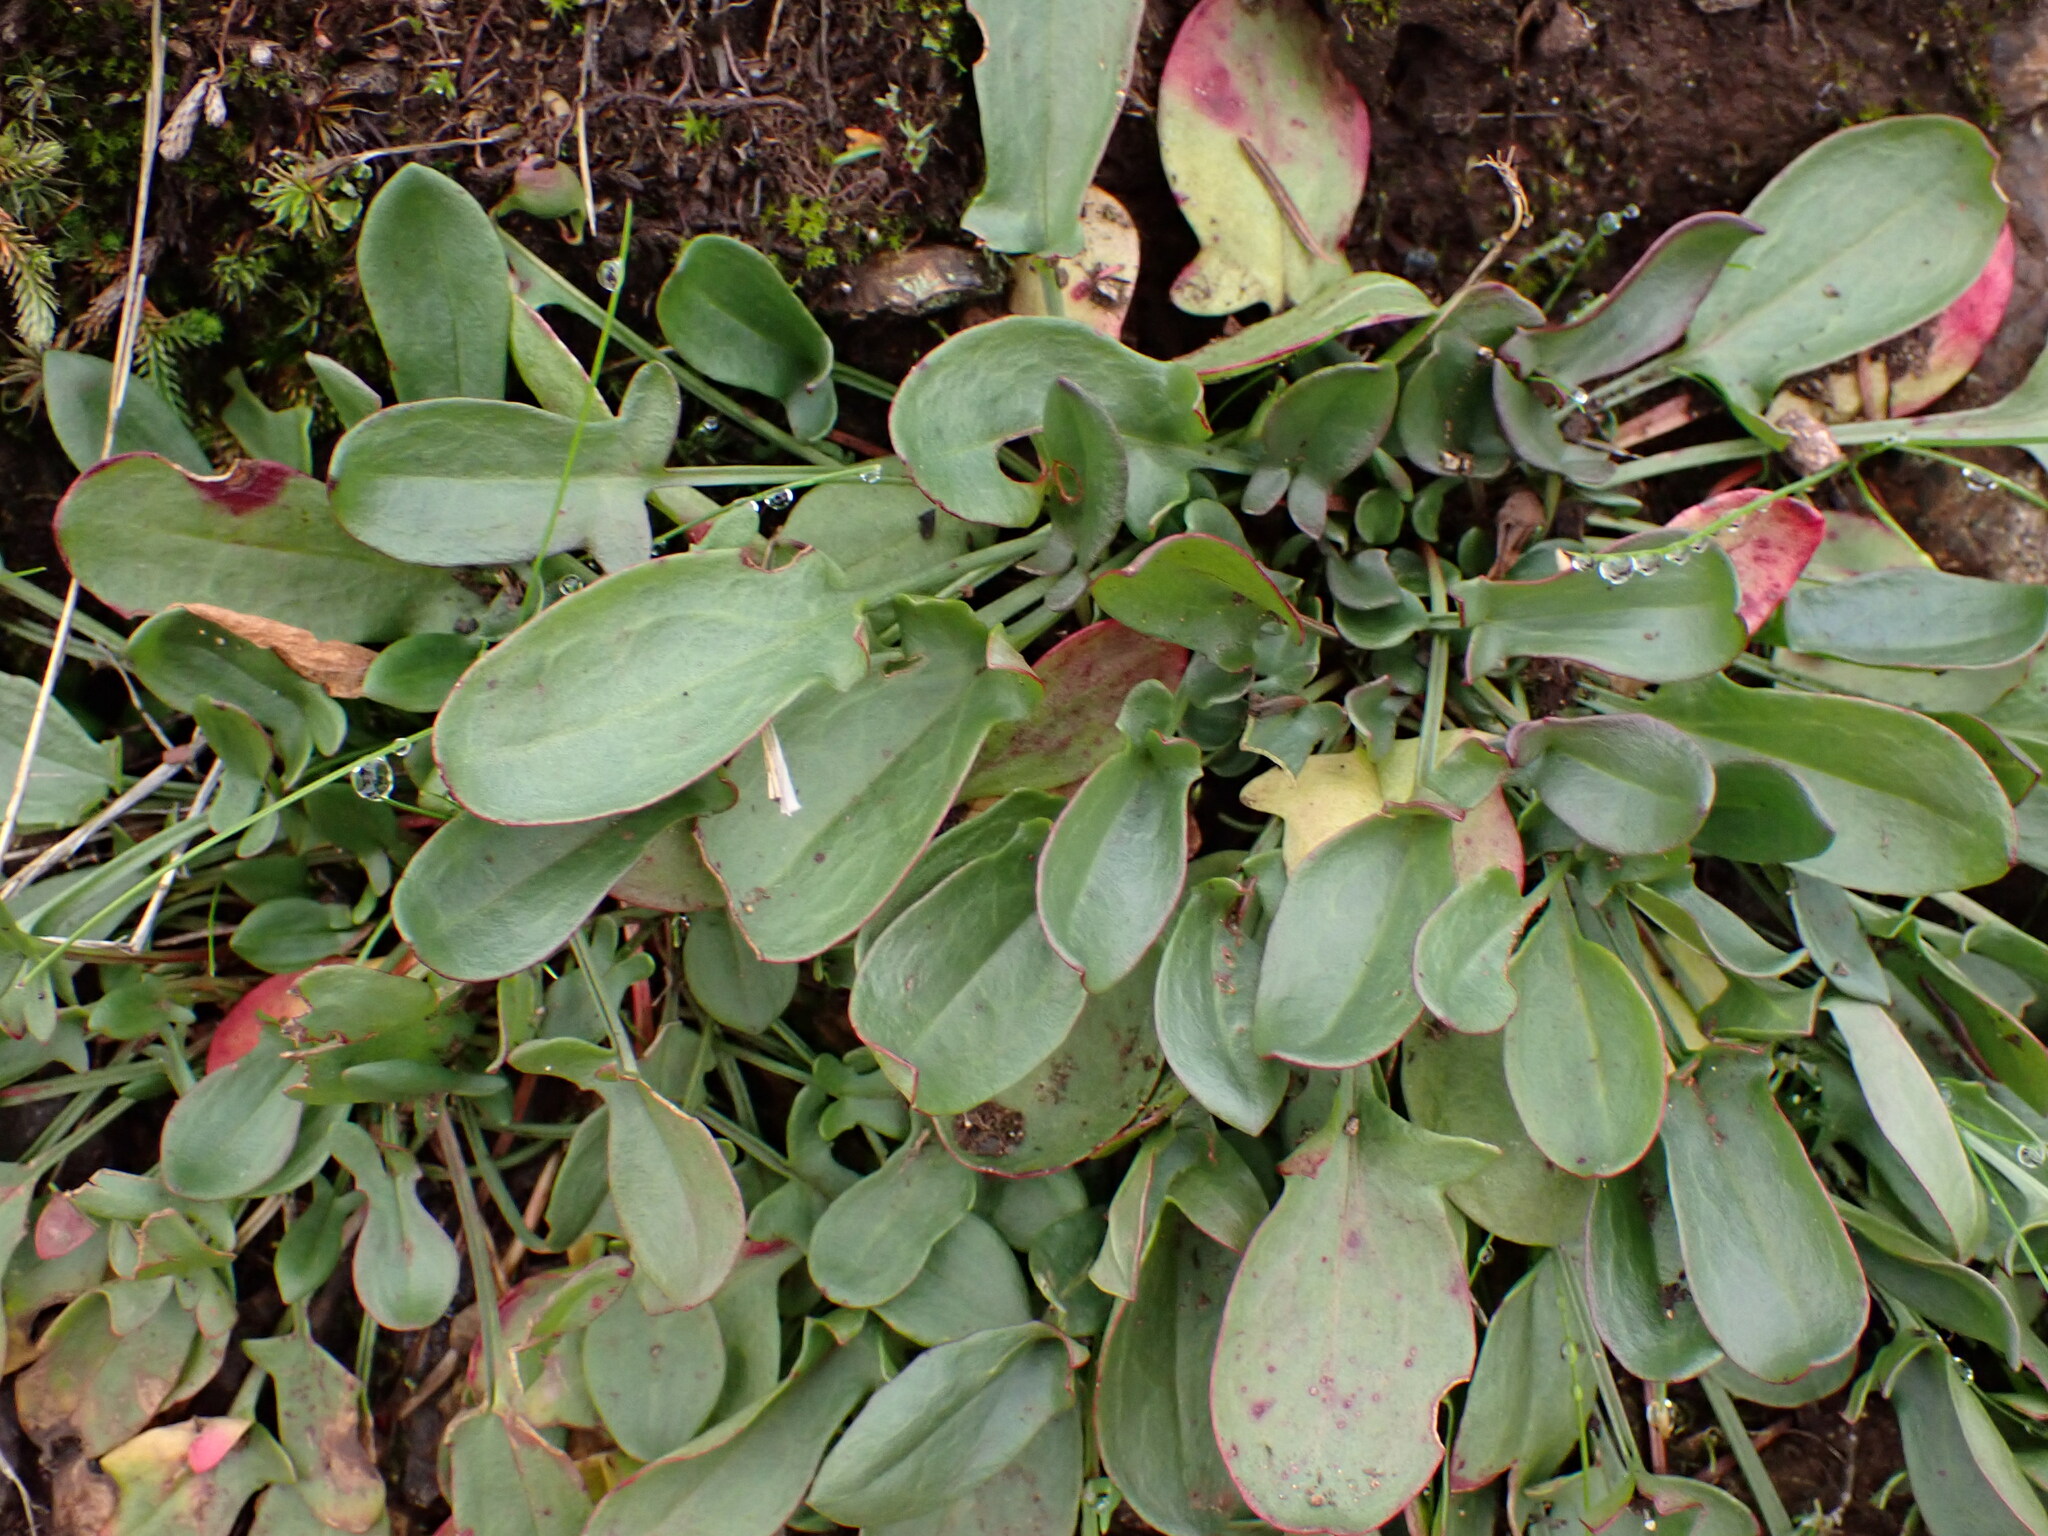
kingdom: Plantae
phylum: Tracheophyta
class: Magnoliopsida
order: Caryophyllales
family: Polygonaceae
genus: Rumex
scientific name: Rumex acetosella
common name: Common sheep sorrel
